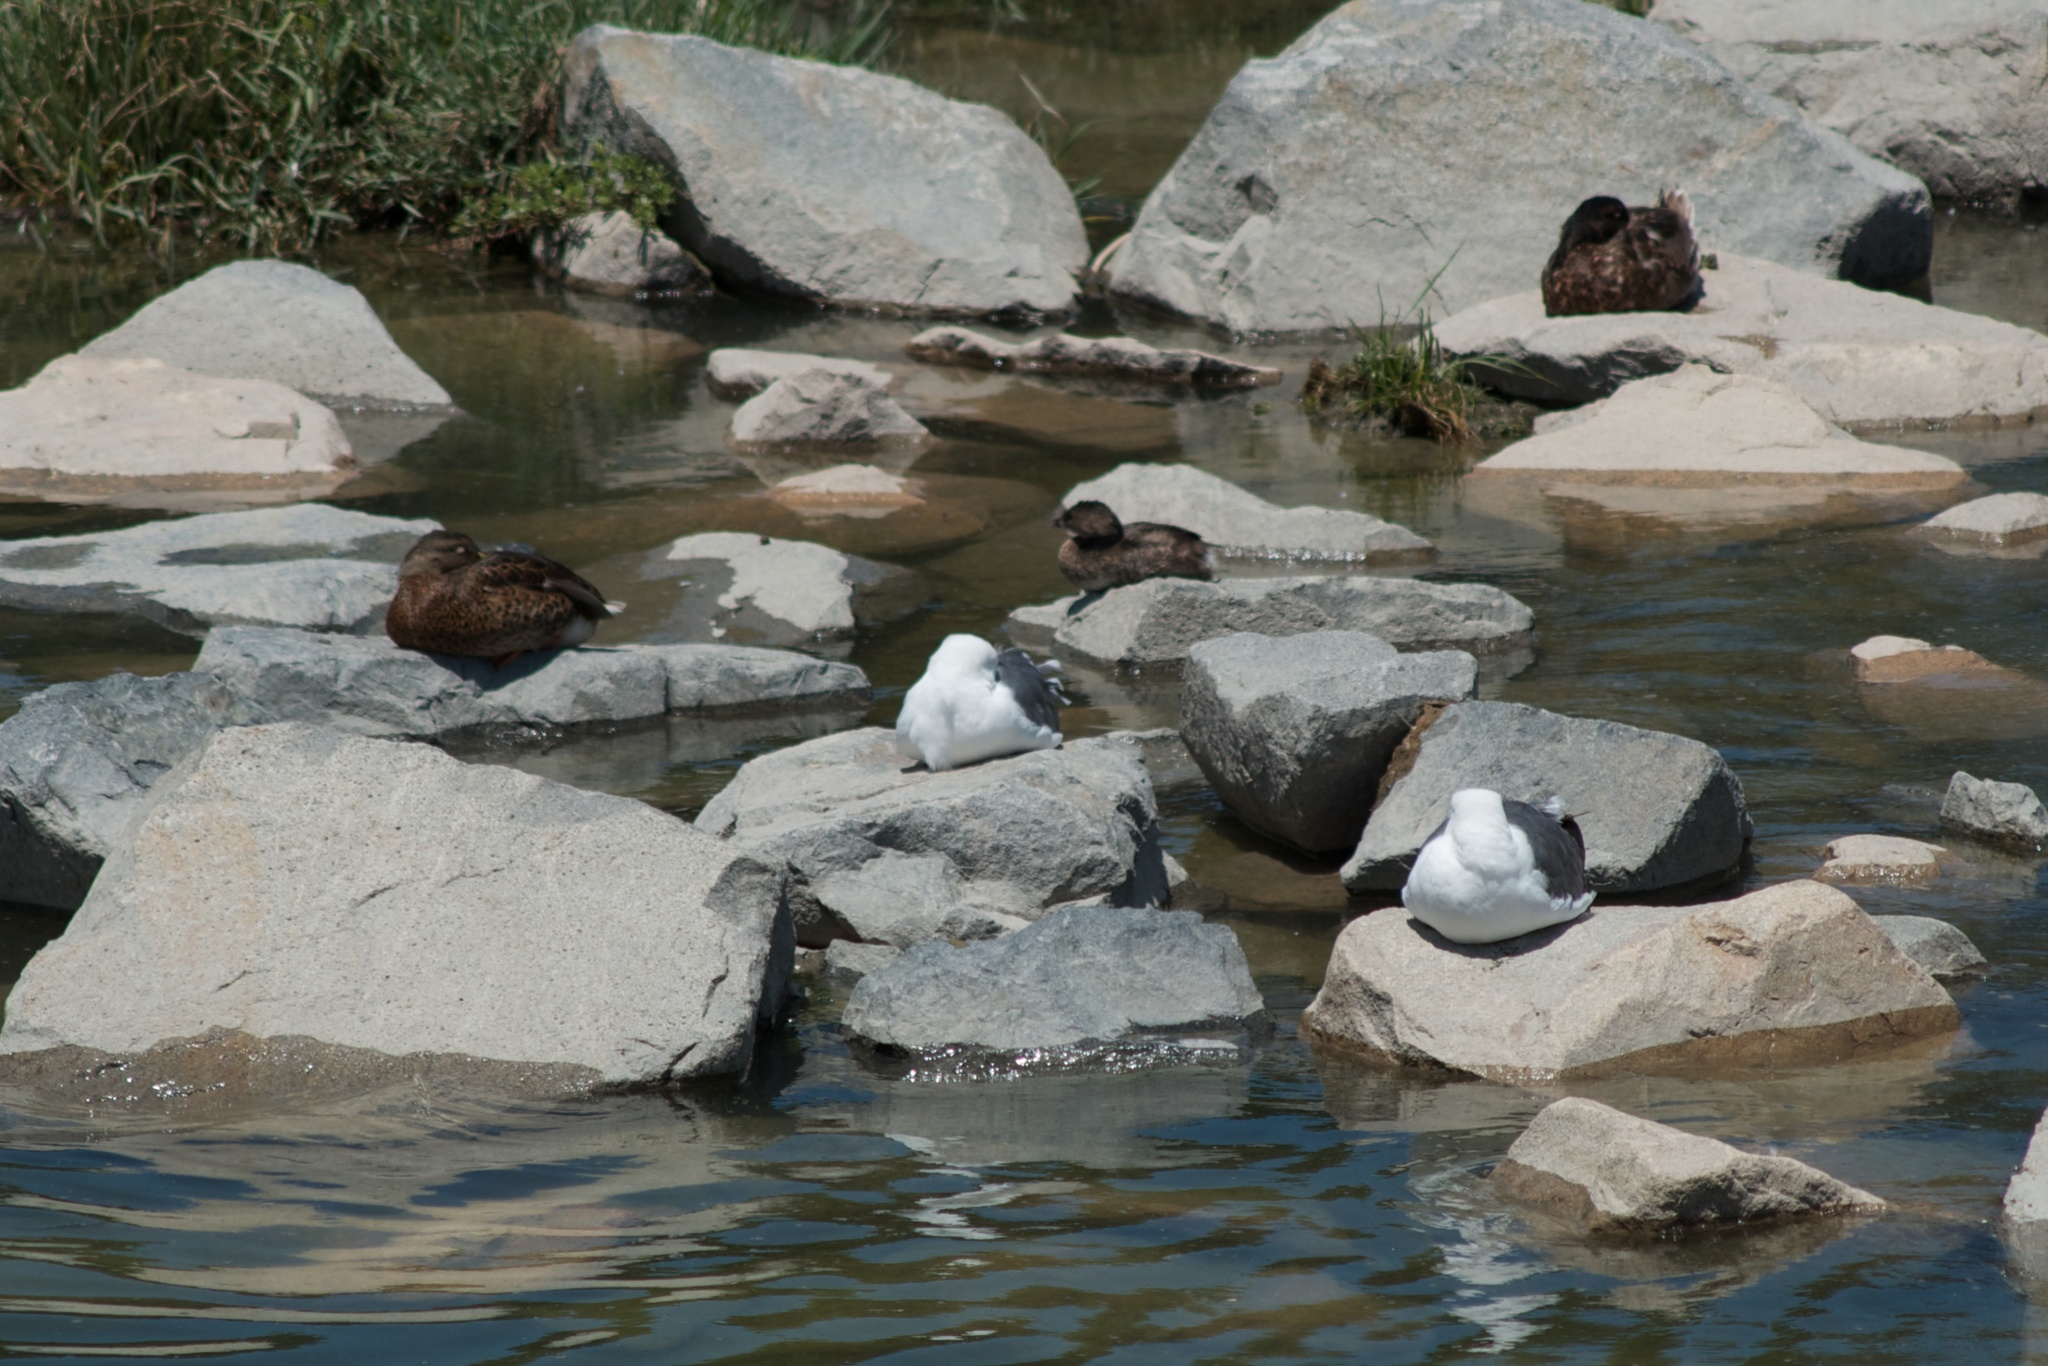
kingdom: Animalia
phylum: Chordata
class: Aves
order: Podicipediformes
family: Podicipedidae
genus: Podilymbus
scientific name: Podilymbus podiceps
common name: Pied-billed grebe
